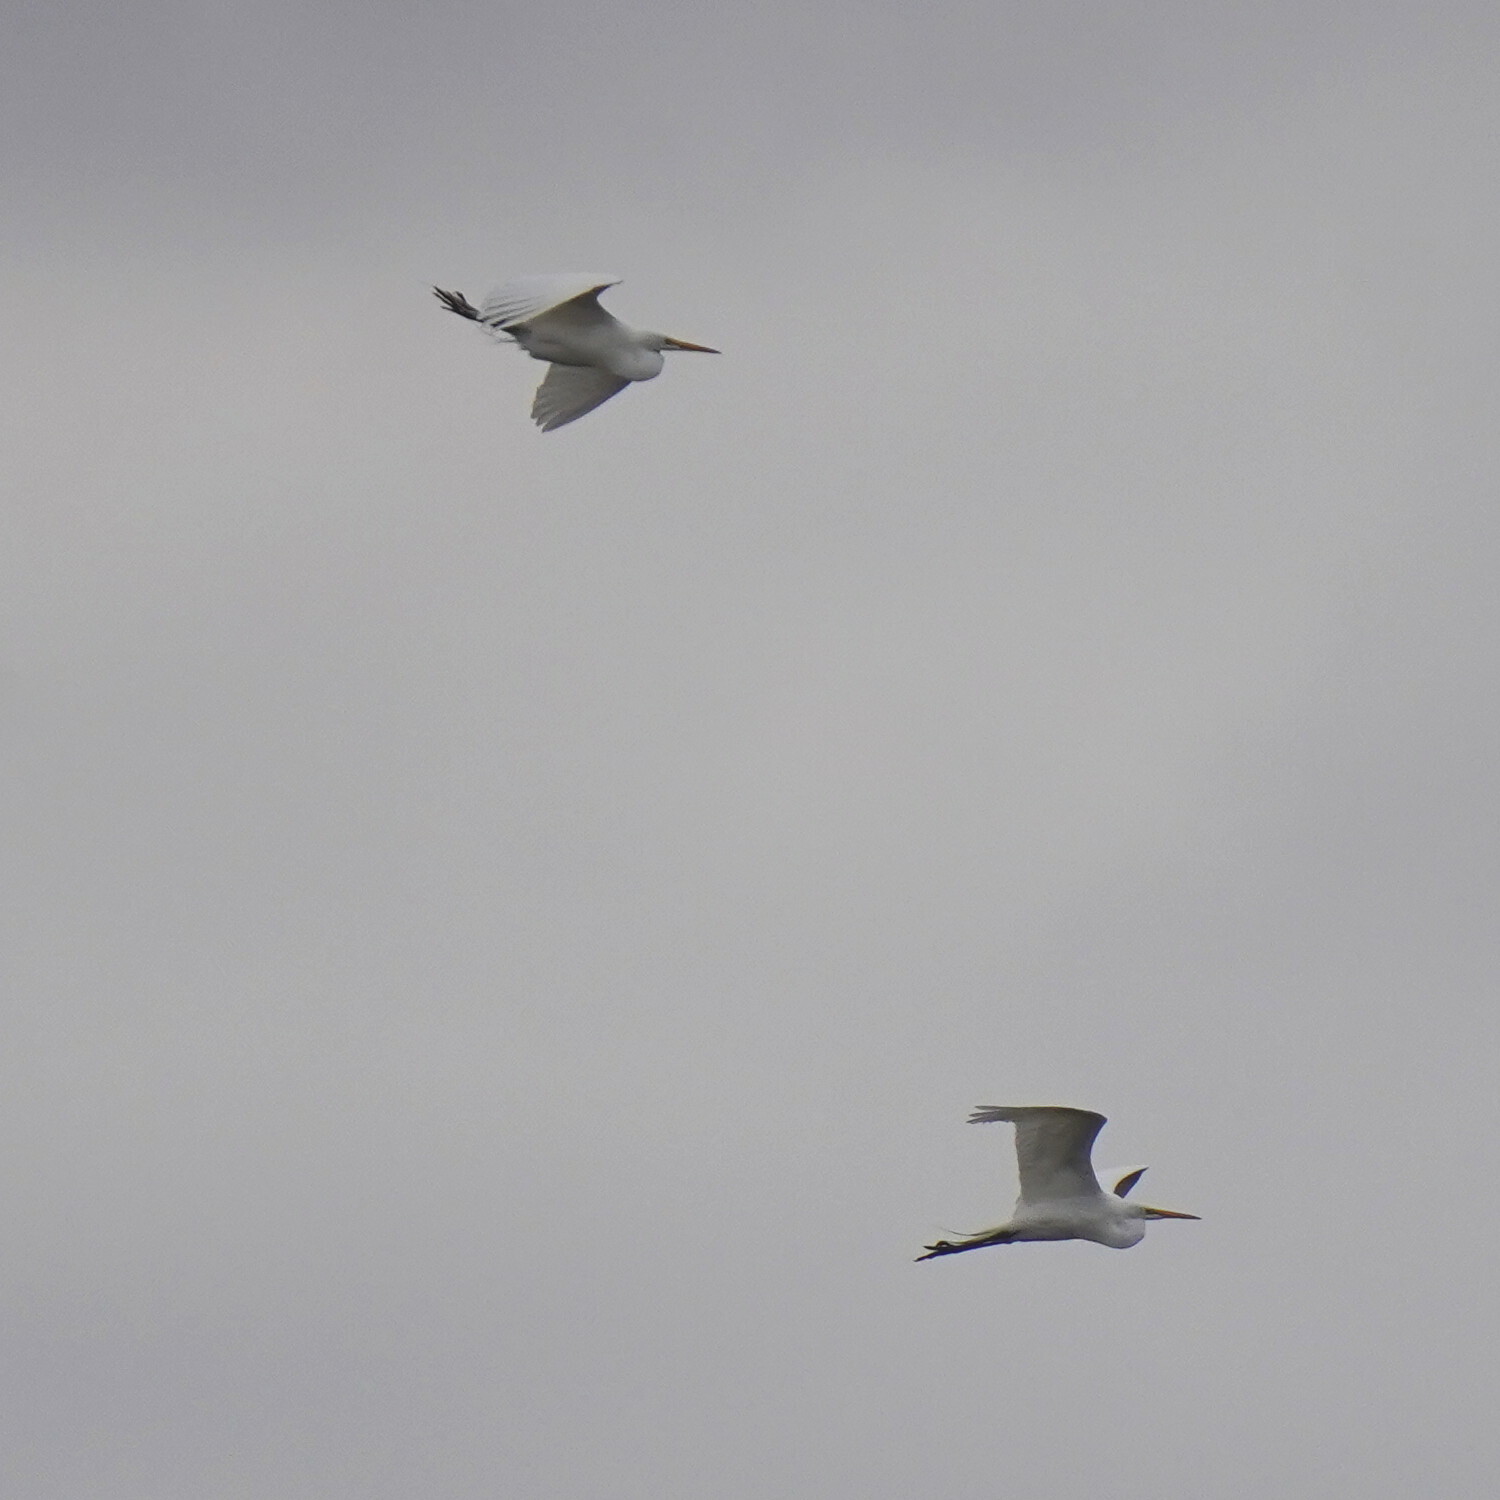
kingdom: Animalia
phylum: Chordata
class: Aves
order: Pelecaniformes
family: Ardeidae
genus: Ardea
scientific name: Ardea alba
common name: Great egret
